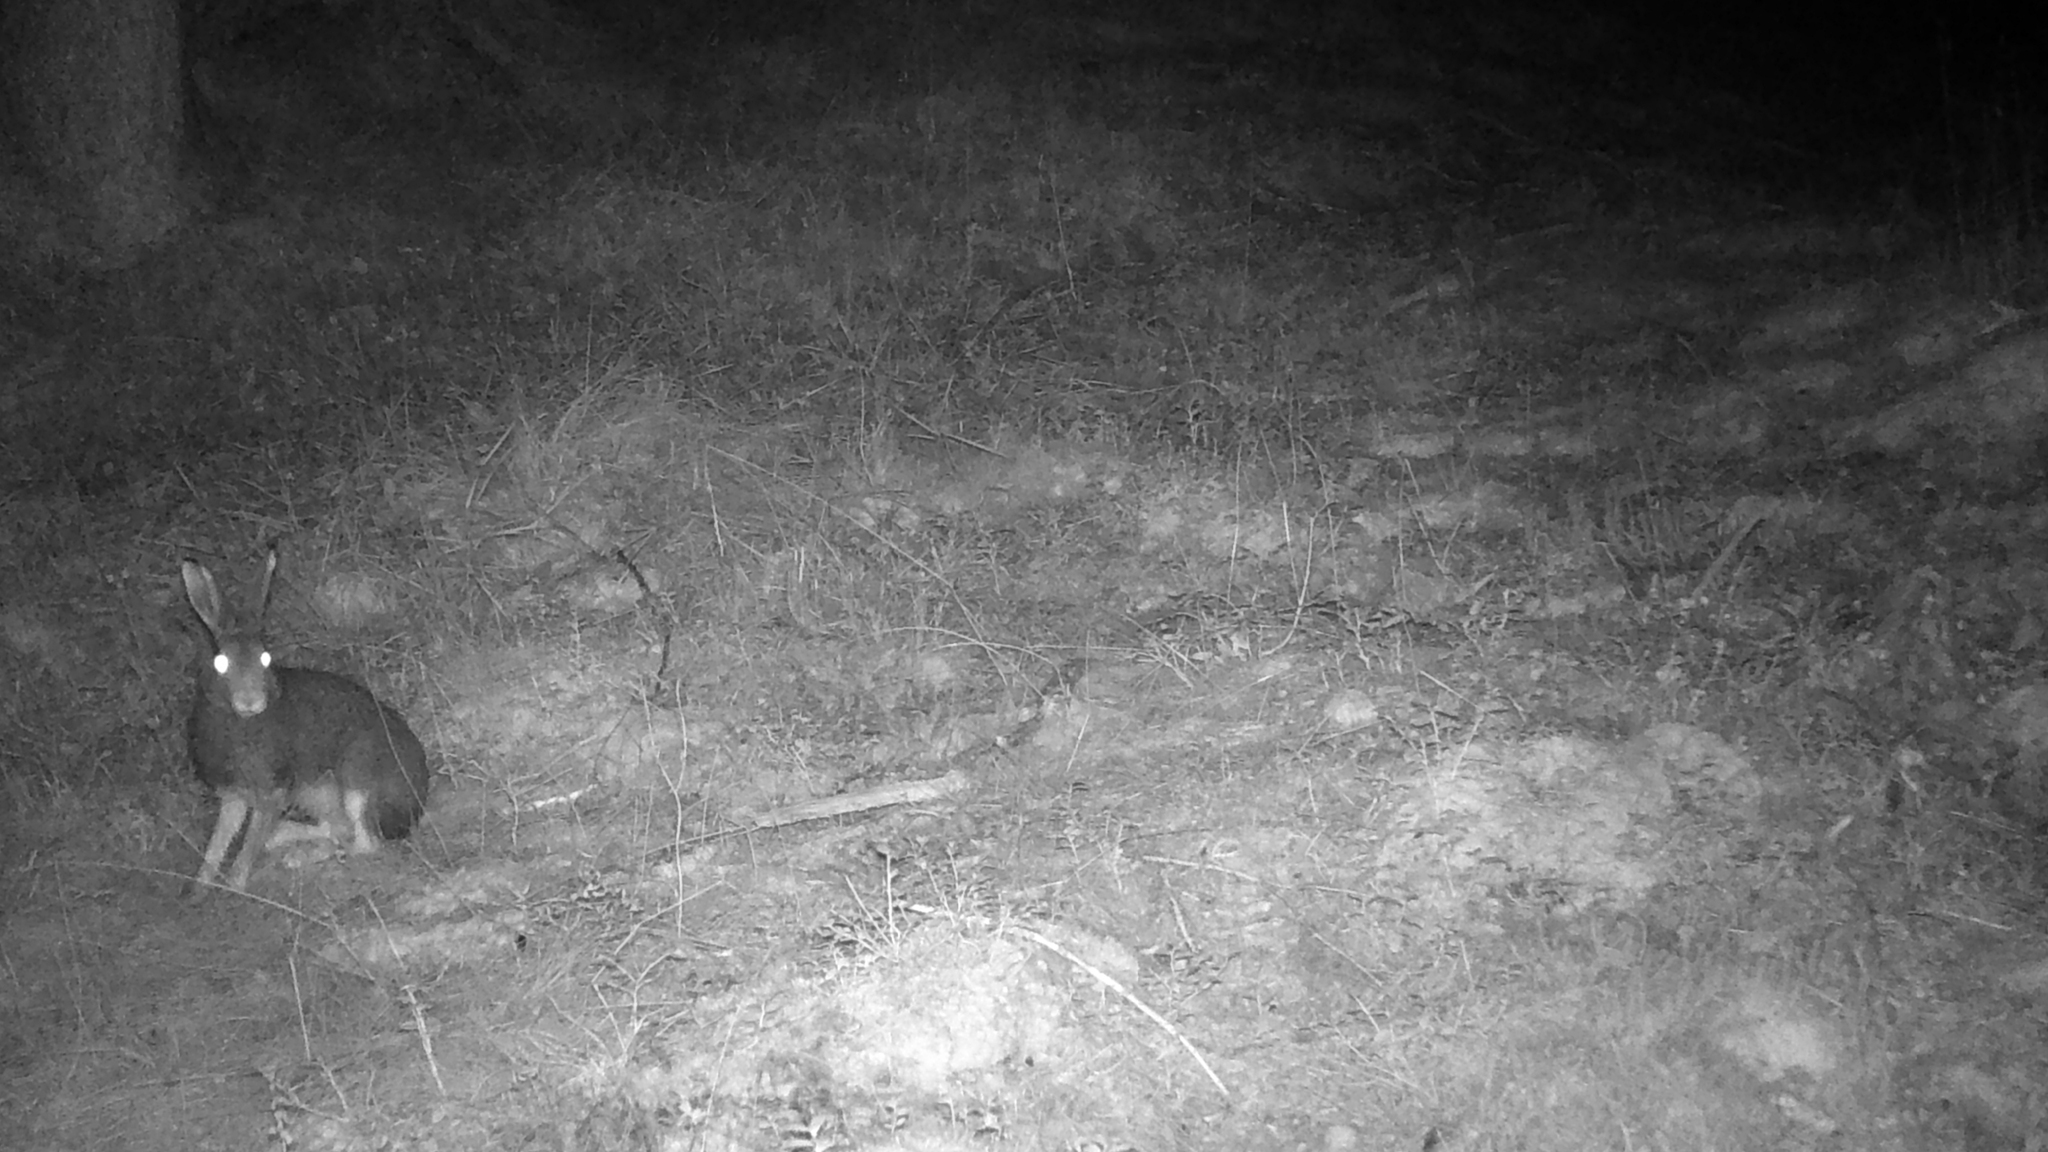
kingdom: Animalia
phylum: Chordata
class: Mammalia
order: Lagomorpha
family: Leporidae
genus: Lepus
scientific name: Lepus europaeus
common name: European hare
